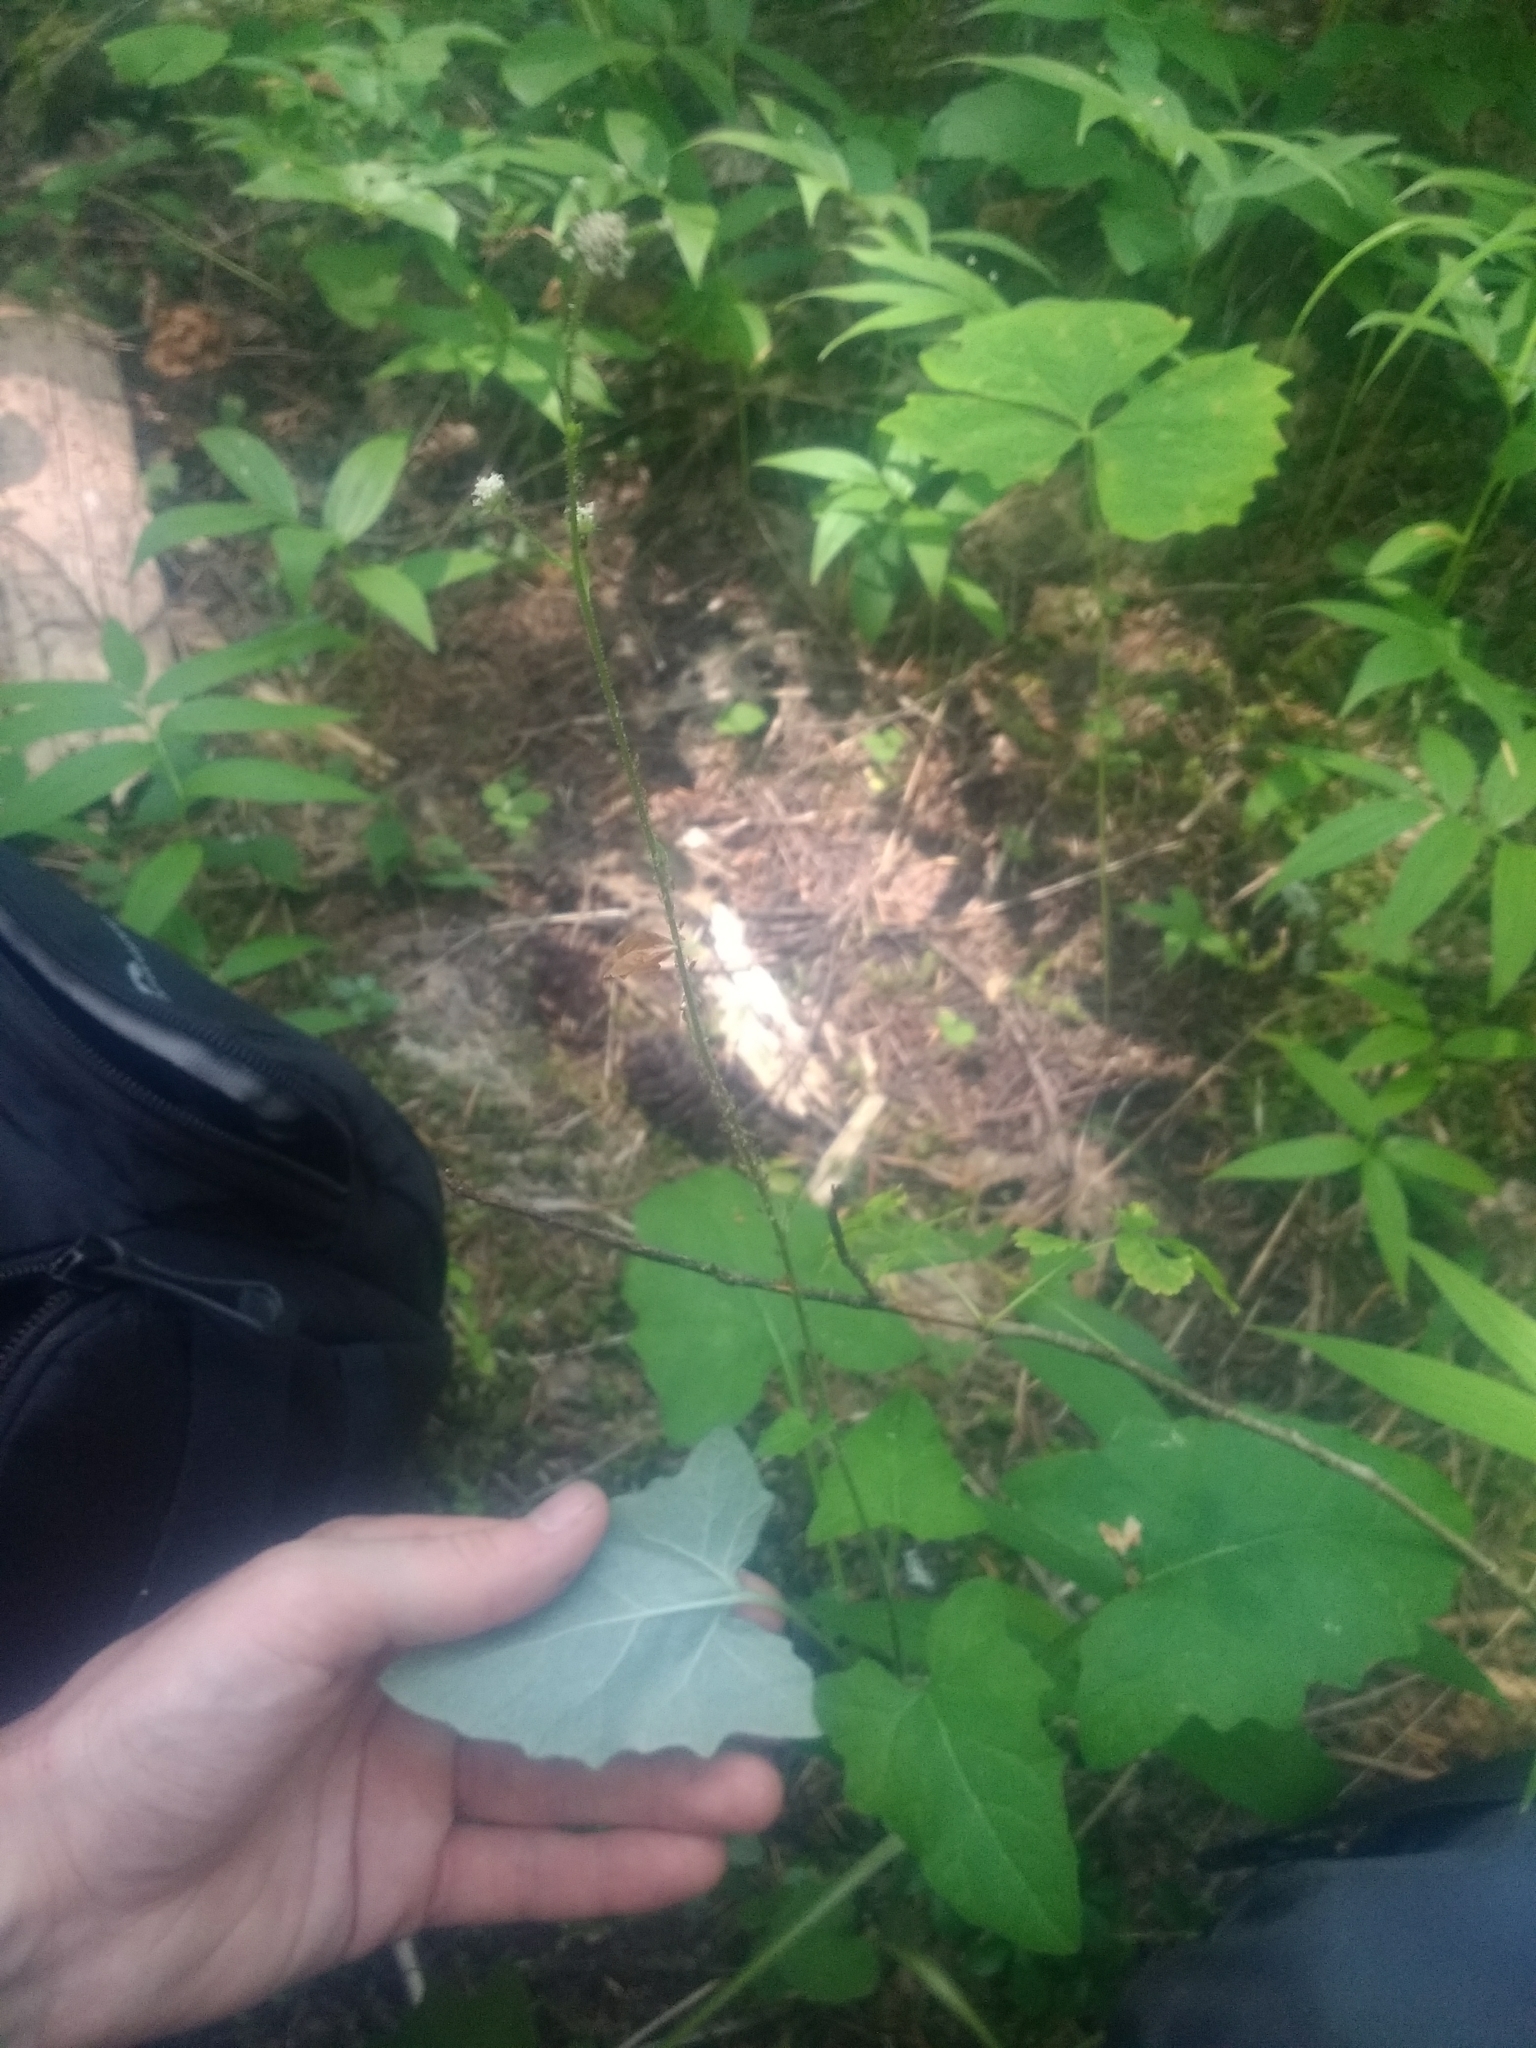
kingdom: Plantae
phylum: Tracheophyta
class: Magnoliopsida
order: Asterales
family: Asteraceae
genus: Adenocaulon
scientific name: Adenocaulon bicolor
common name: Trailplant
